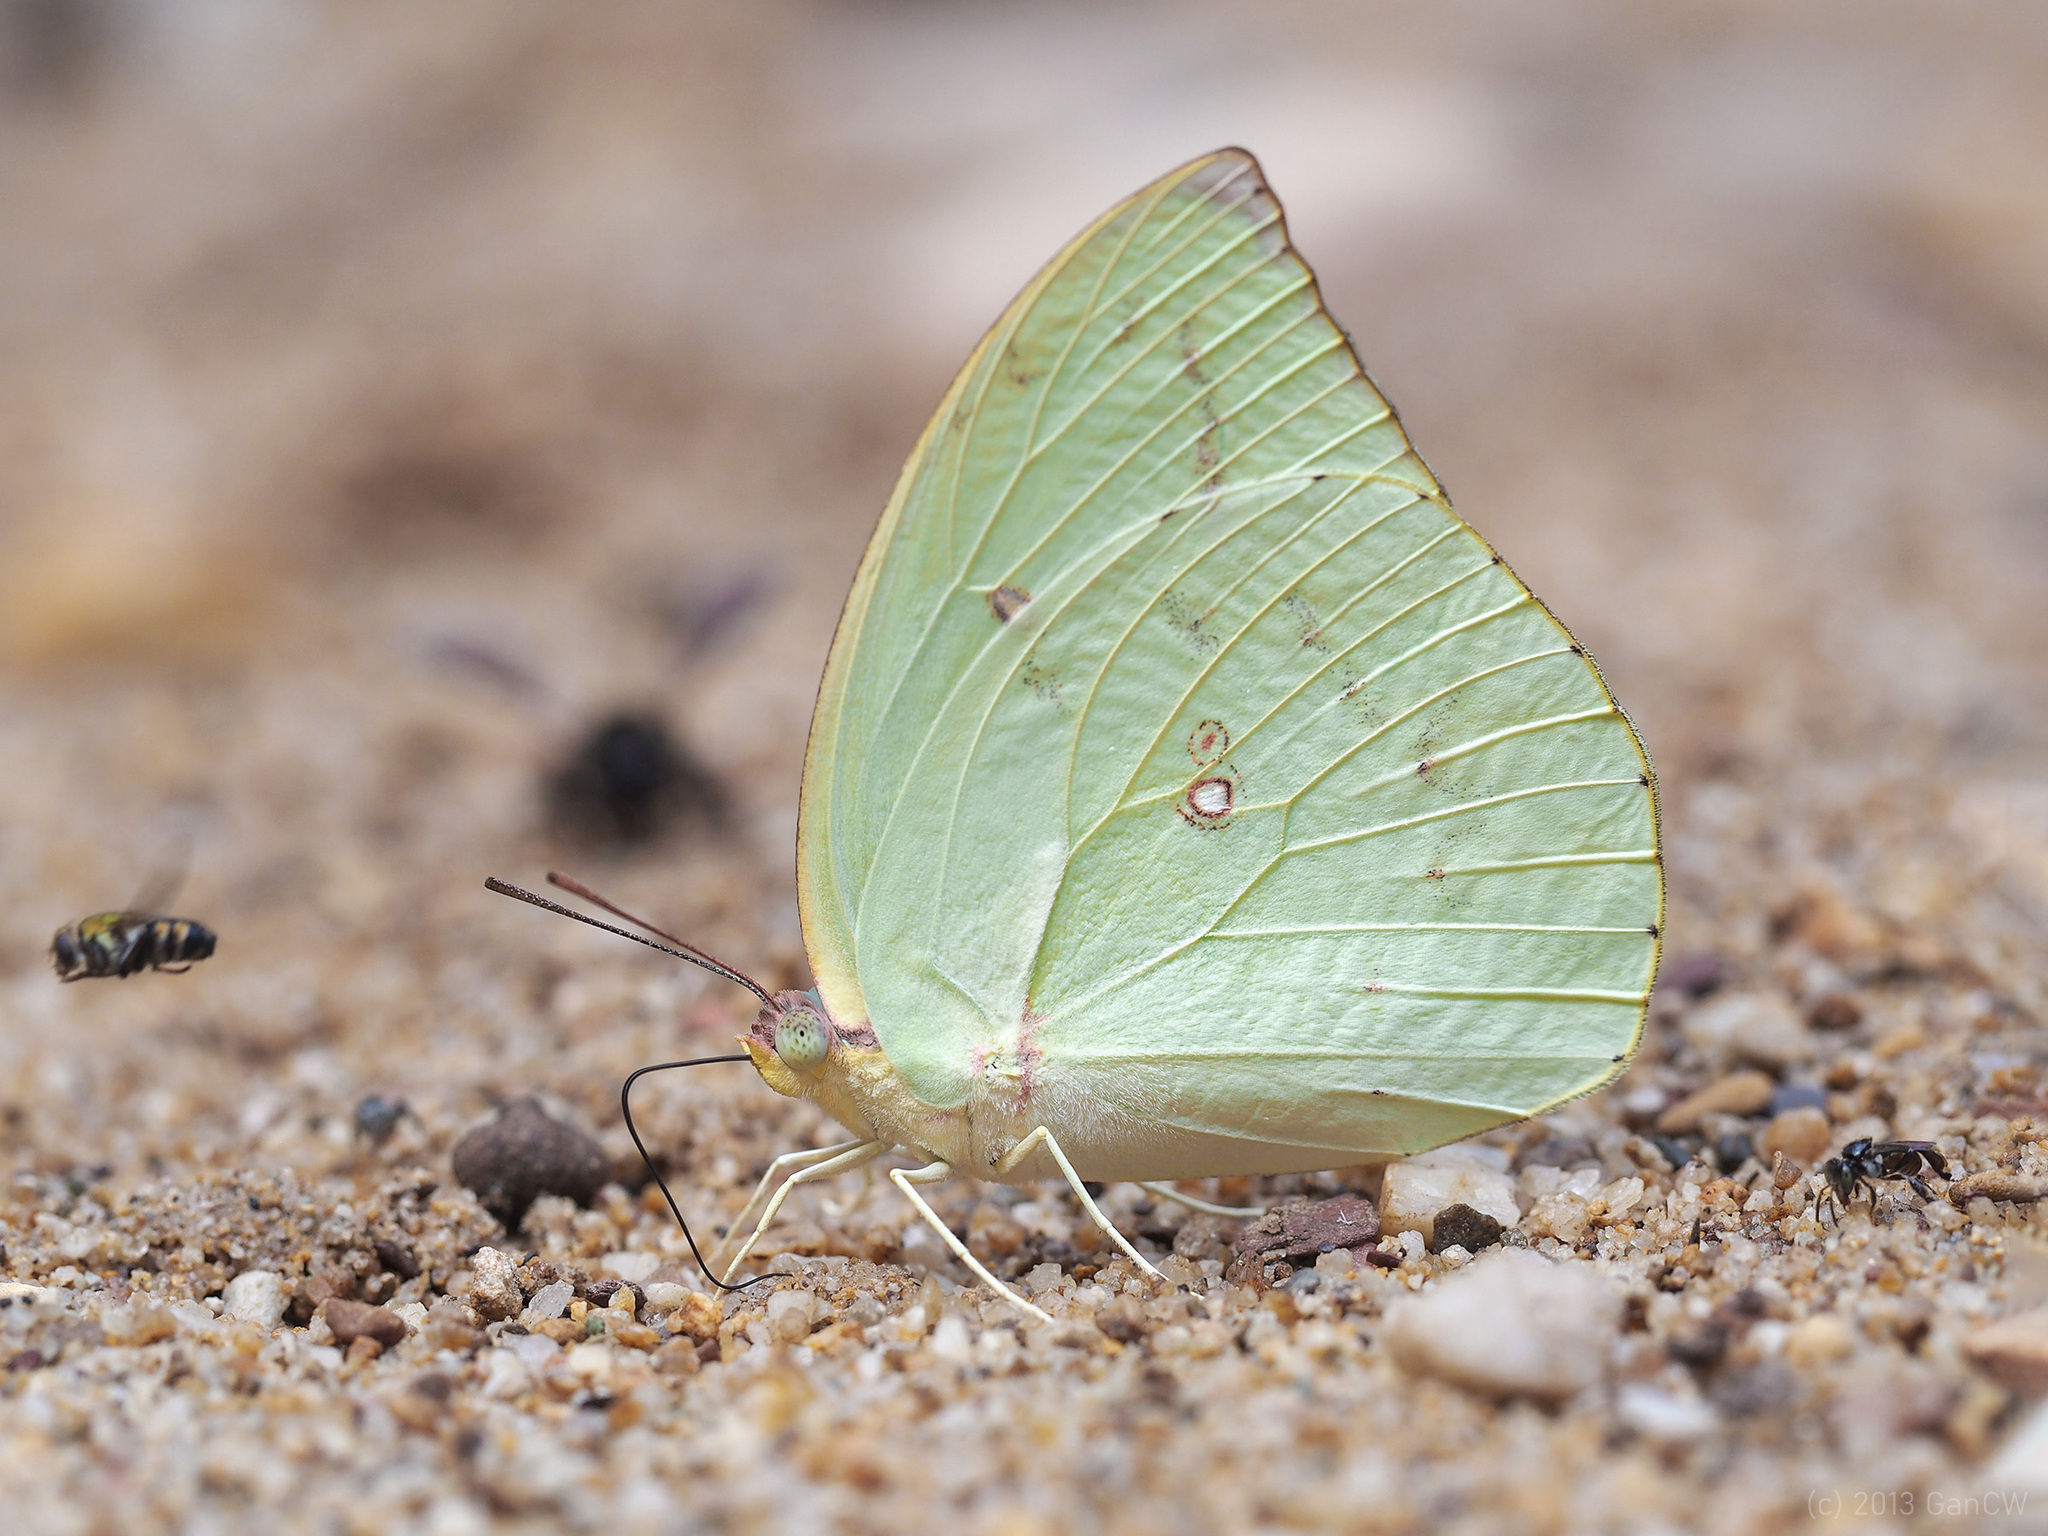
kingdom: Animalia
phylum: Arthropoda
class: Insecta
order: Lepidoptera
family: Pieridae
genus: Catopsilia
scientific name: Catopsilia pomona
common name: Common emigrant
